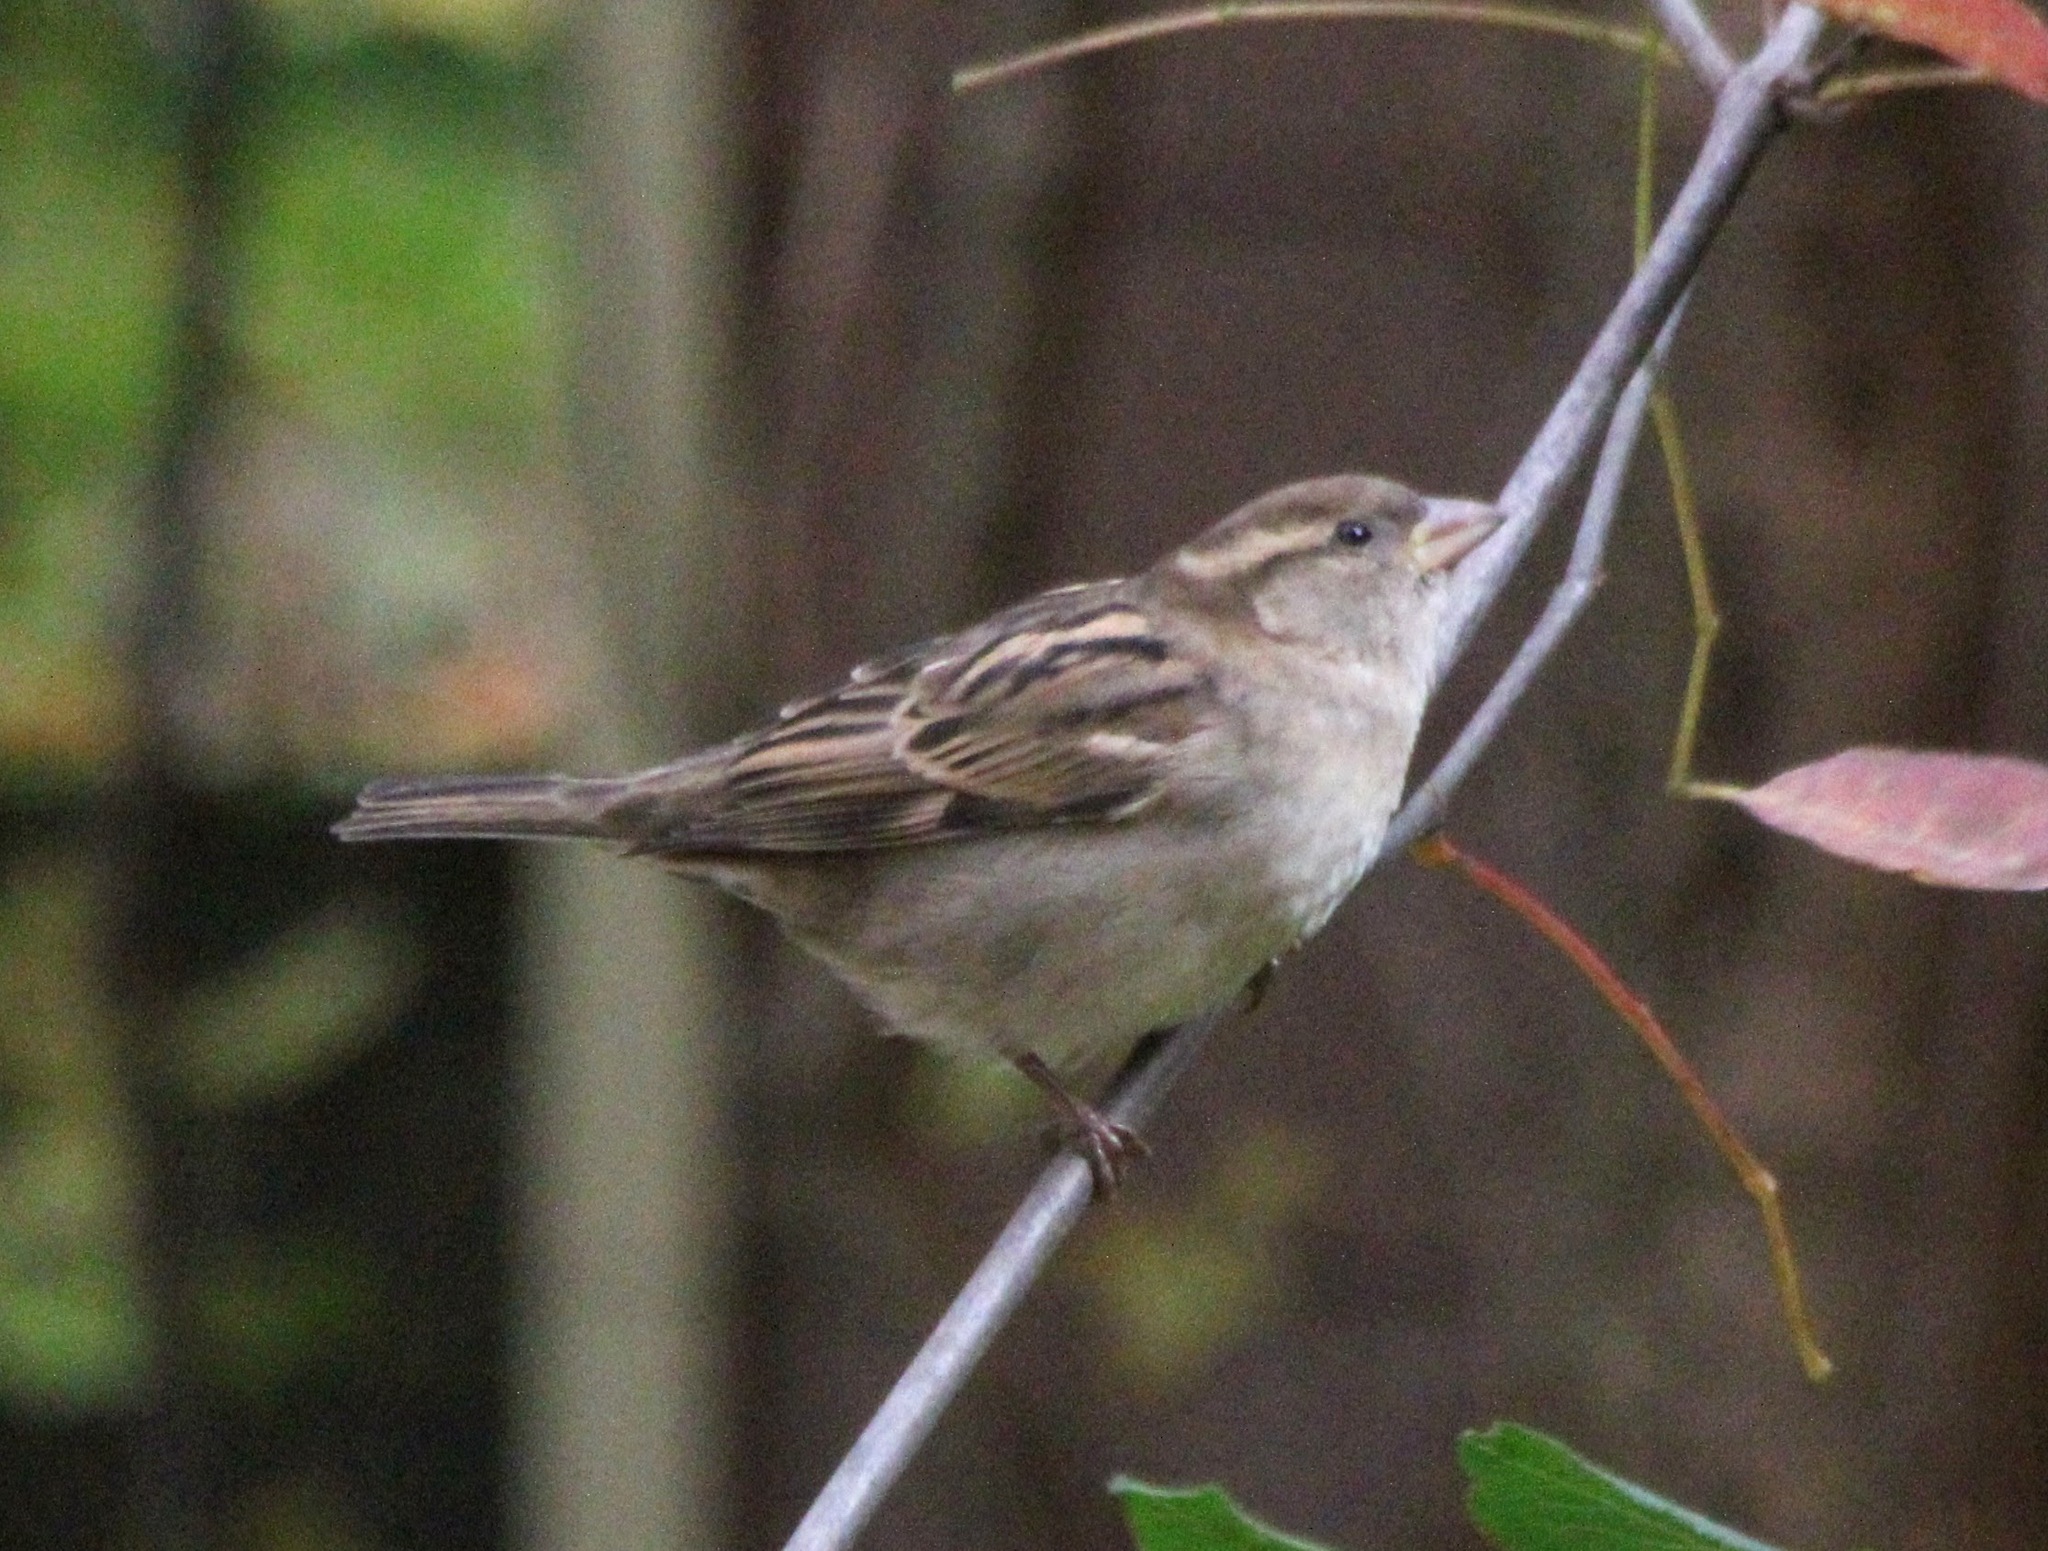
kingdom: Animalia
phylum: Chordata
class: Aves
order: Passeriformes
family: Passeridae
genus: Passer
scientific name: Passer domesticus
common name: House sparrow
